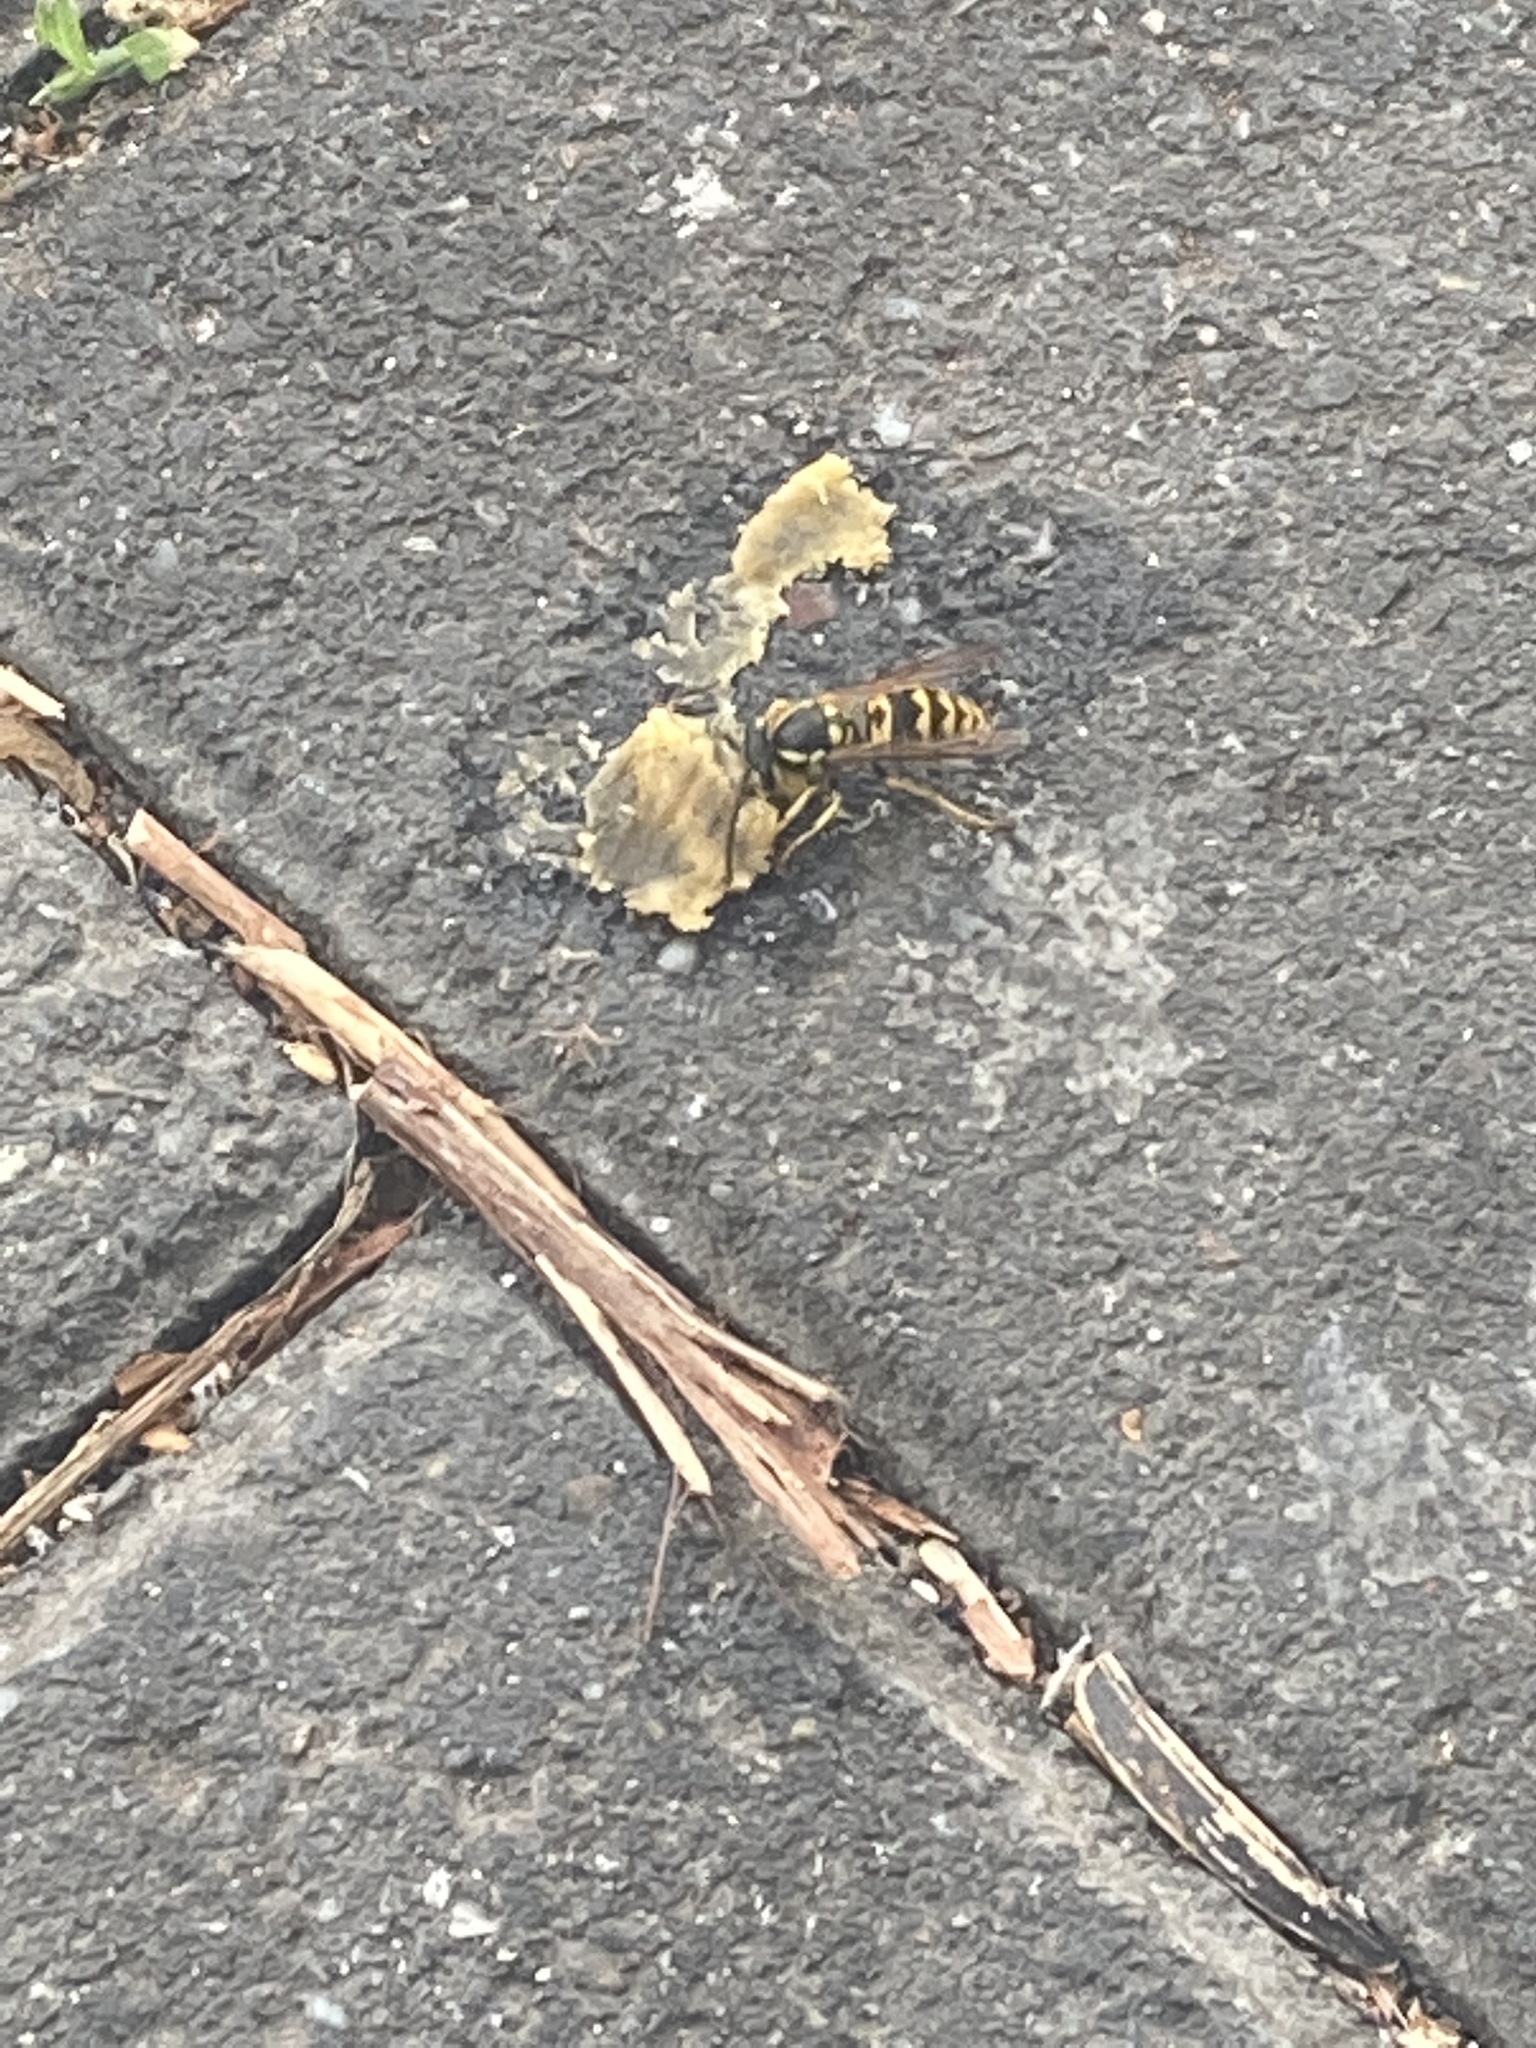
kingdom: Animalia
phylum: Arthropoda
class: Insecta
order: Hymenoptera
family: Vespidae
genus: Vespula
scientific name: Vespula vulgaris
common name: Common wasp
